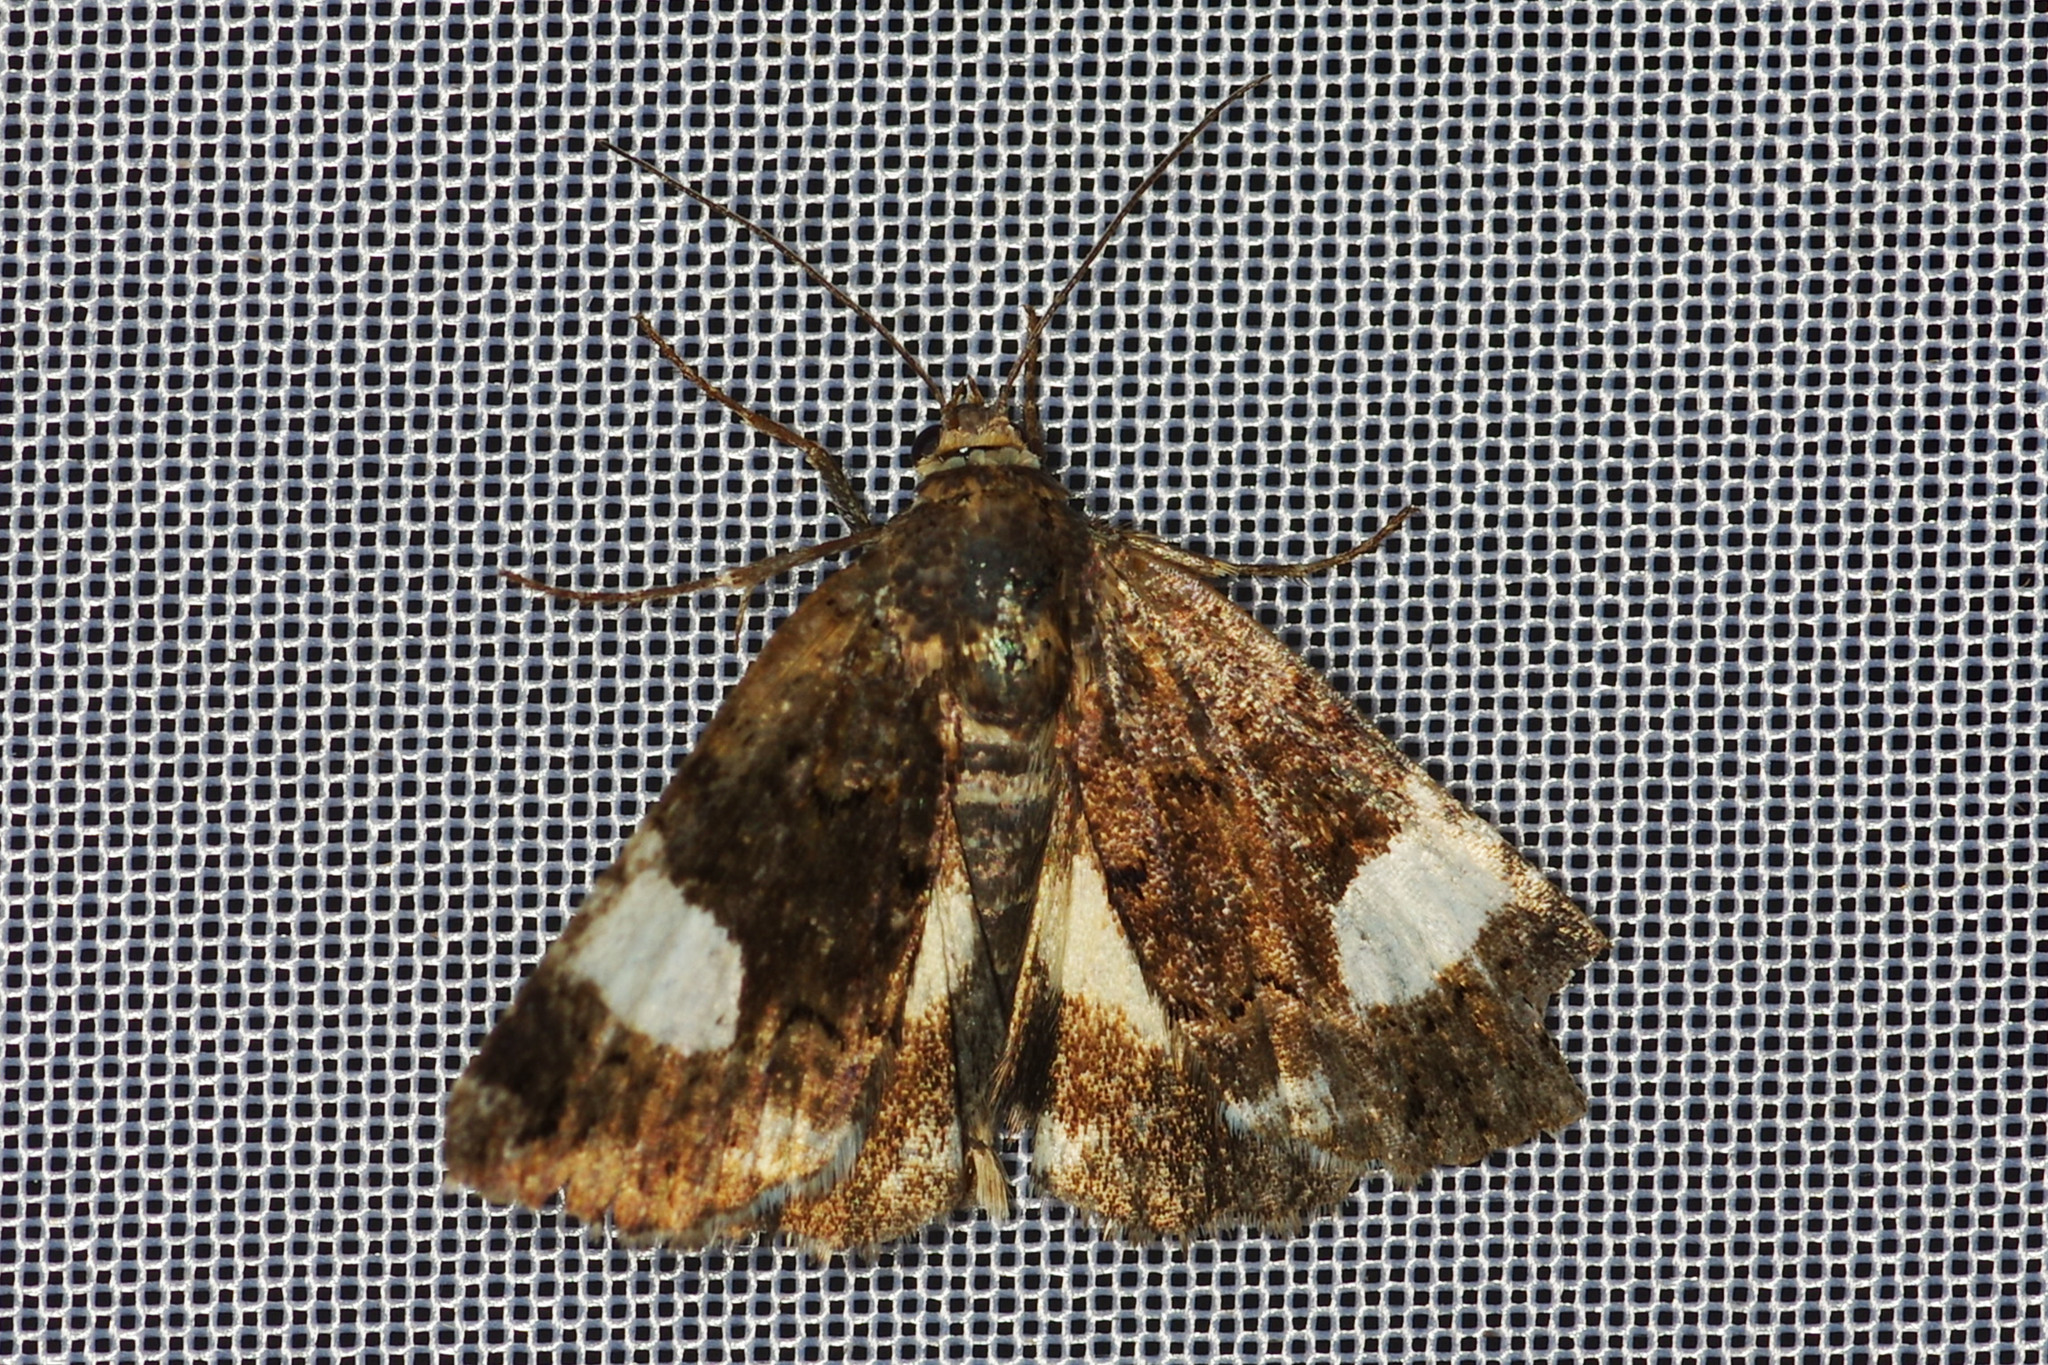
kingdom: Animalia
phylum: Arthropoda
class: Insecta
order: Lepidoptera
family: Erebidae
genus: Tyta
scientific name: Tyta luctuosa
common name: Four-spotted
